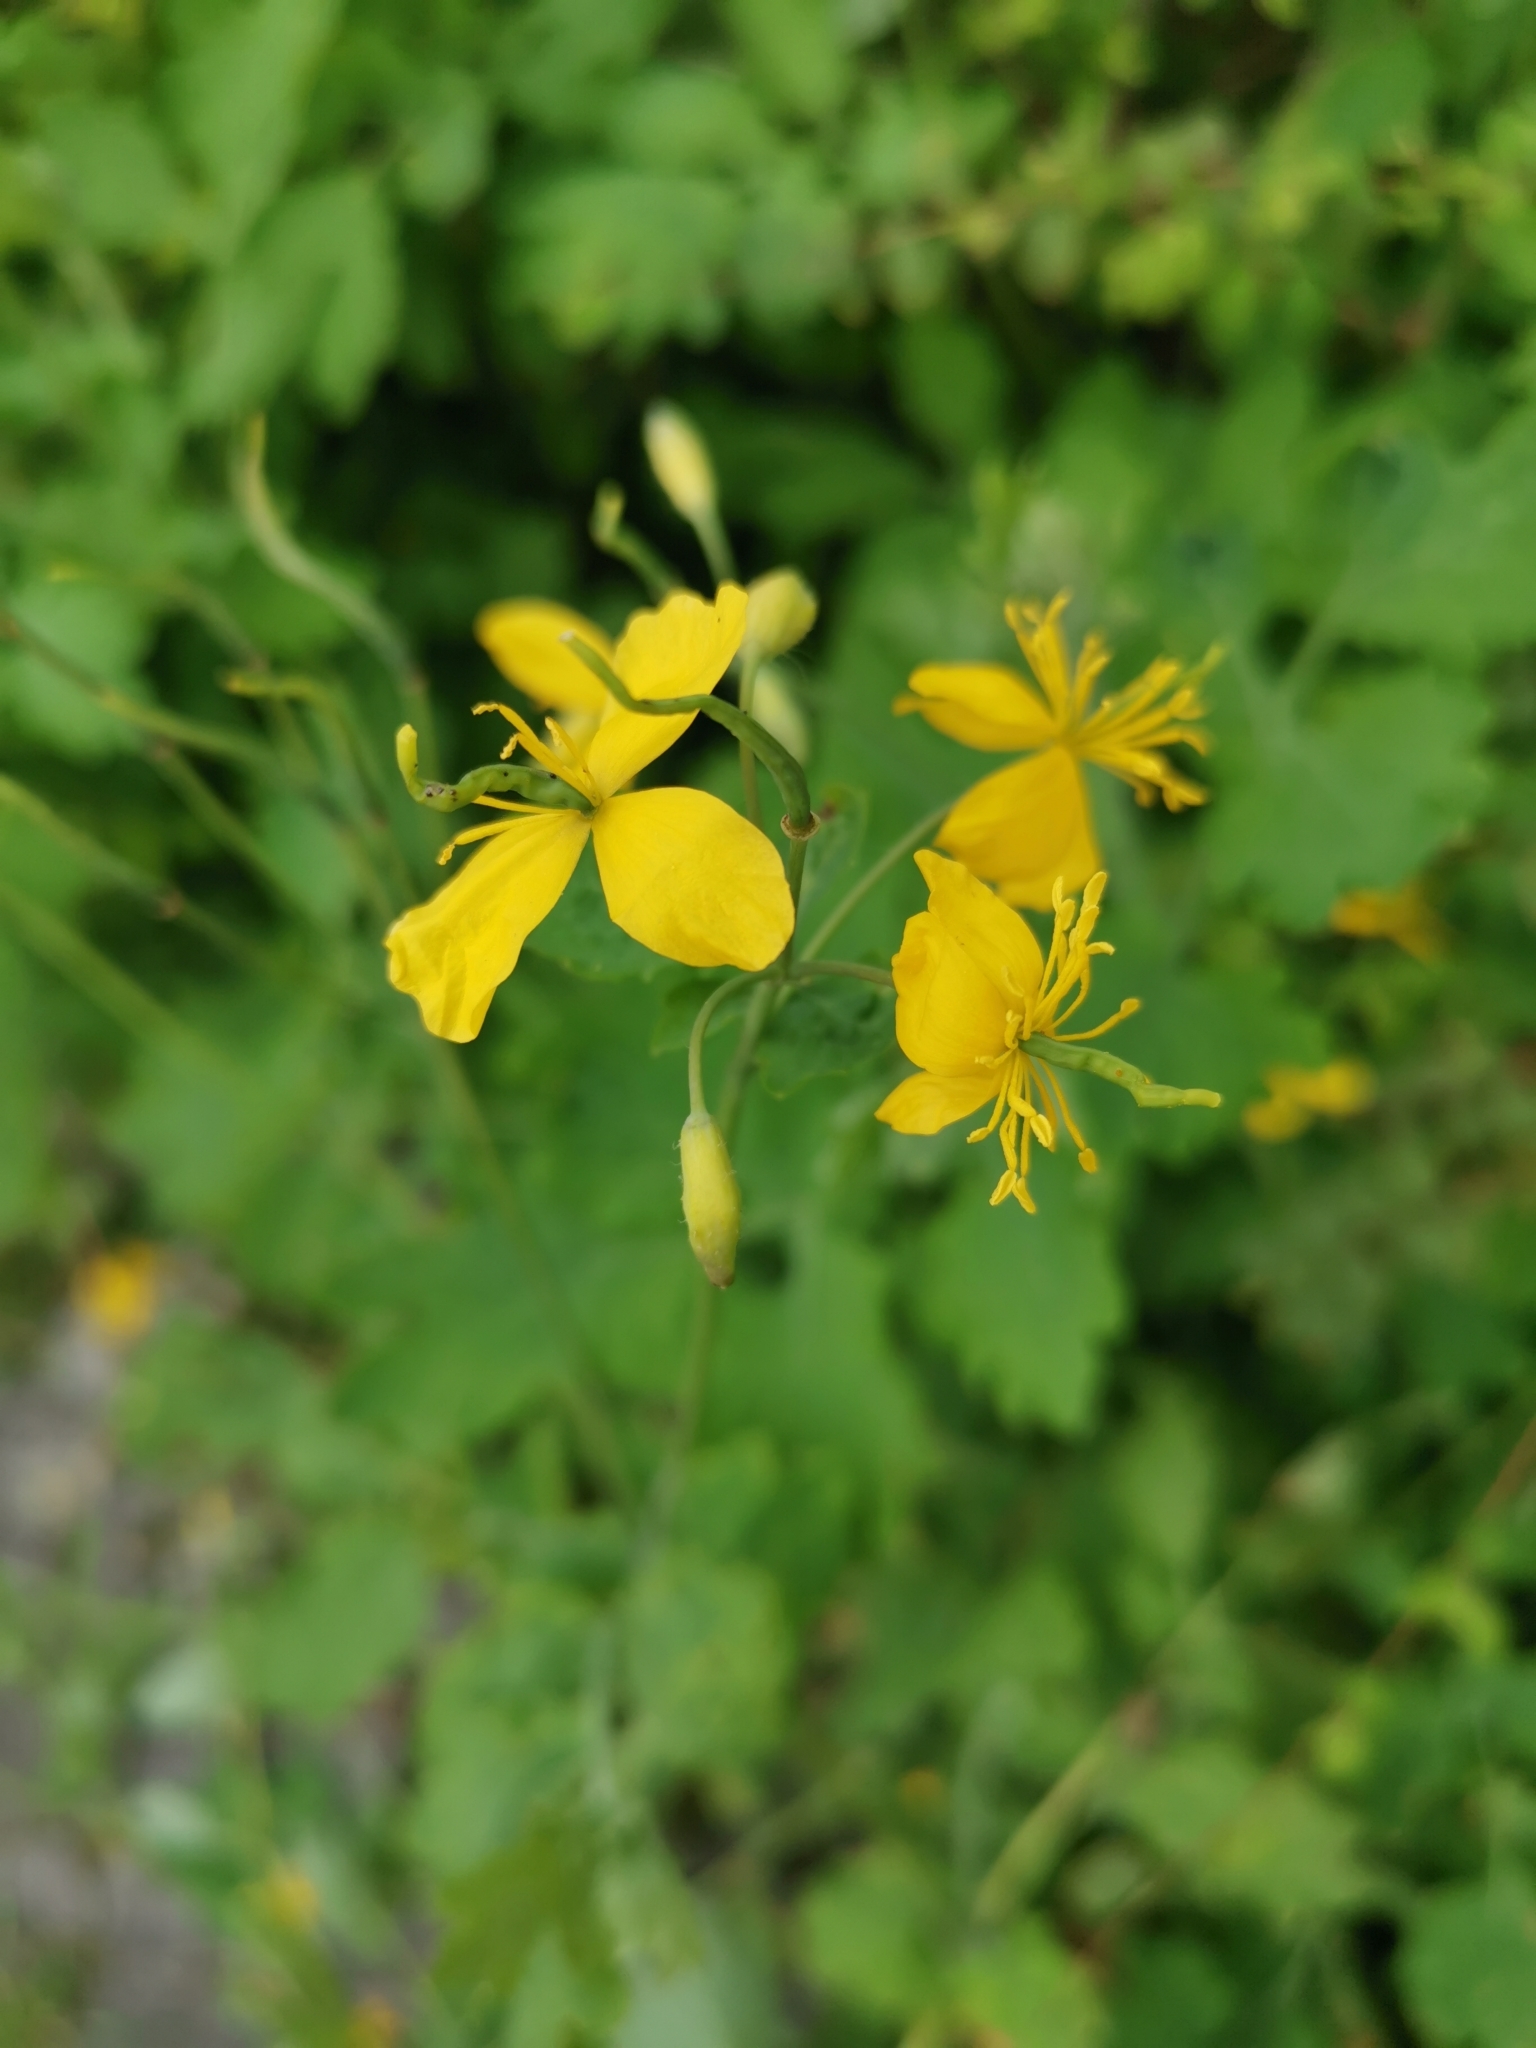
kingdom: Plantae
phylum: Tracheophyta
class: Magnoliopsida
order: Ranunculales
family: Papaveraceae
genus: Chelidonium
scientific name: Chelidonium majus
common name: Greater celandine
